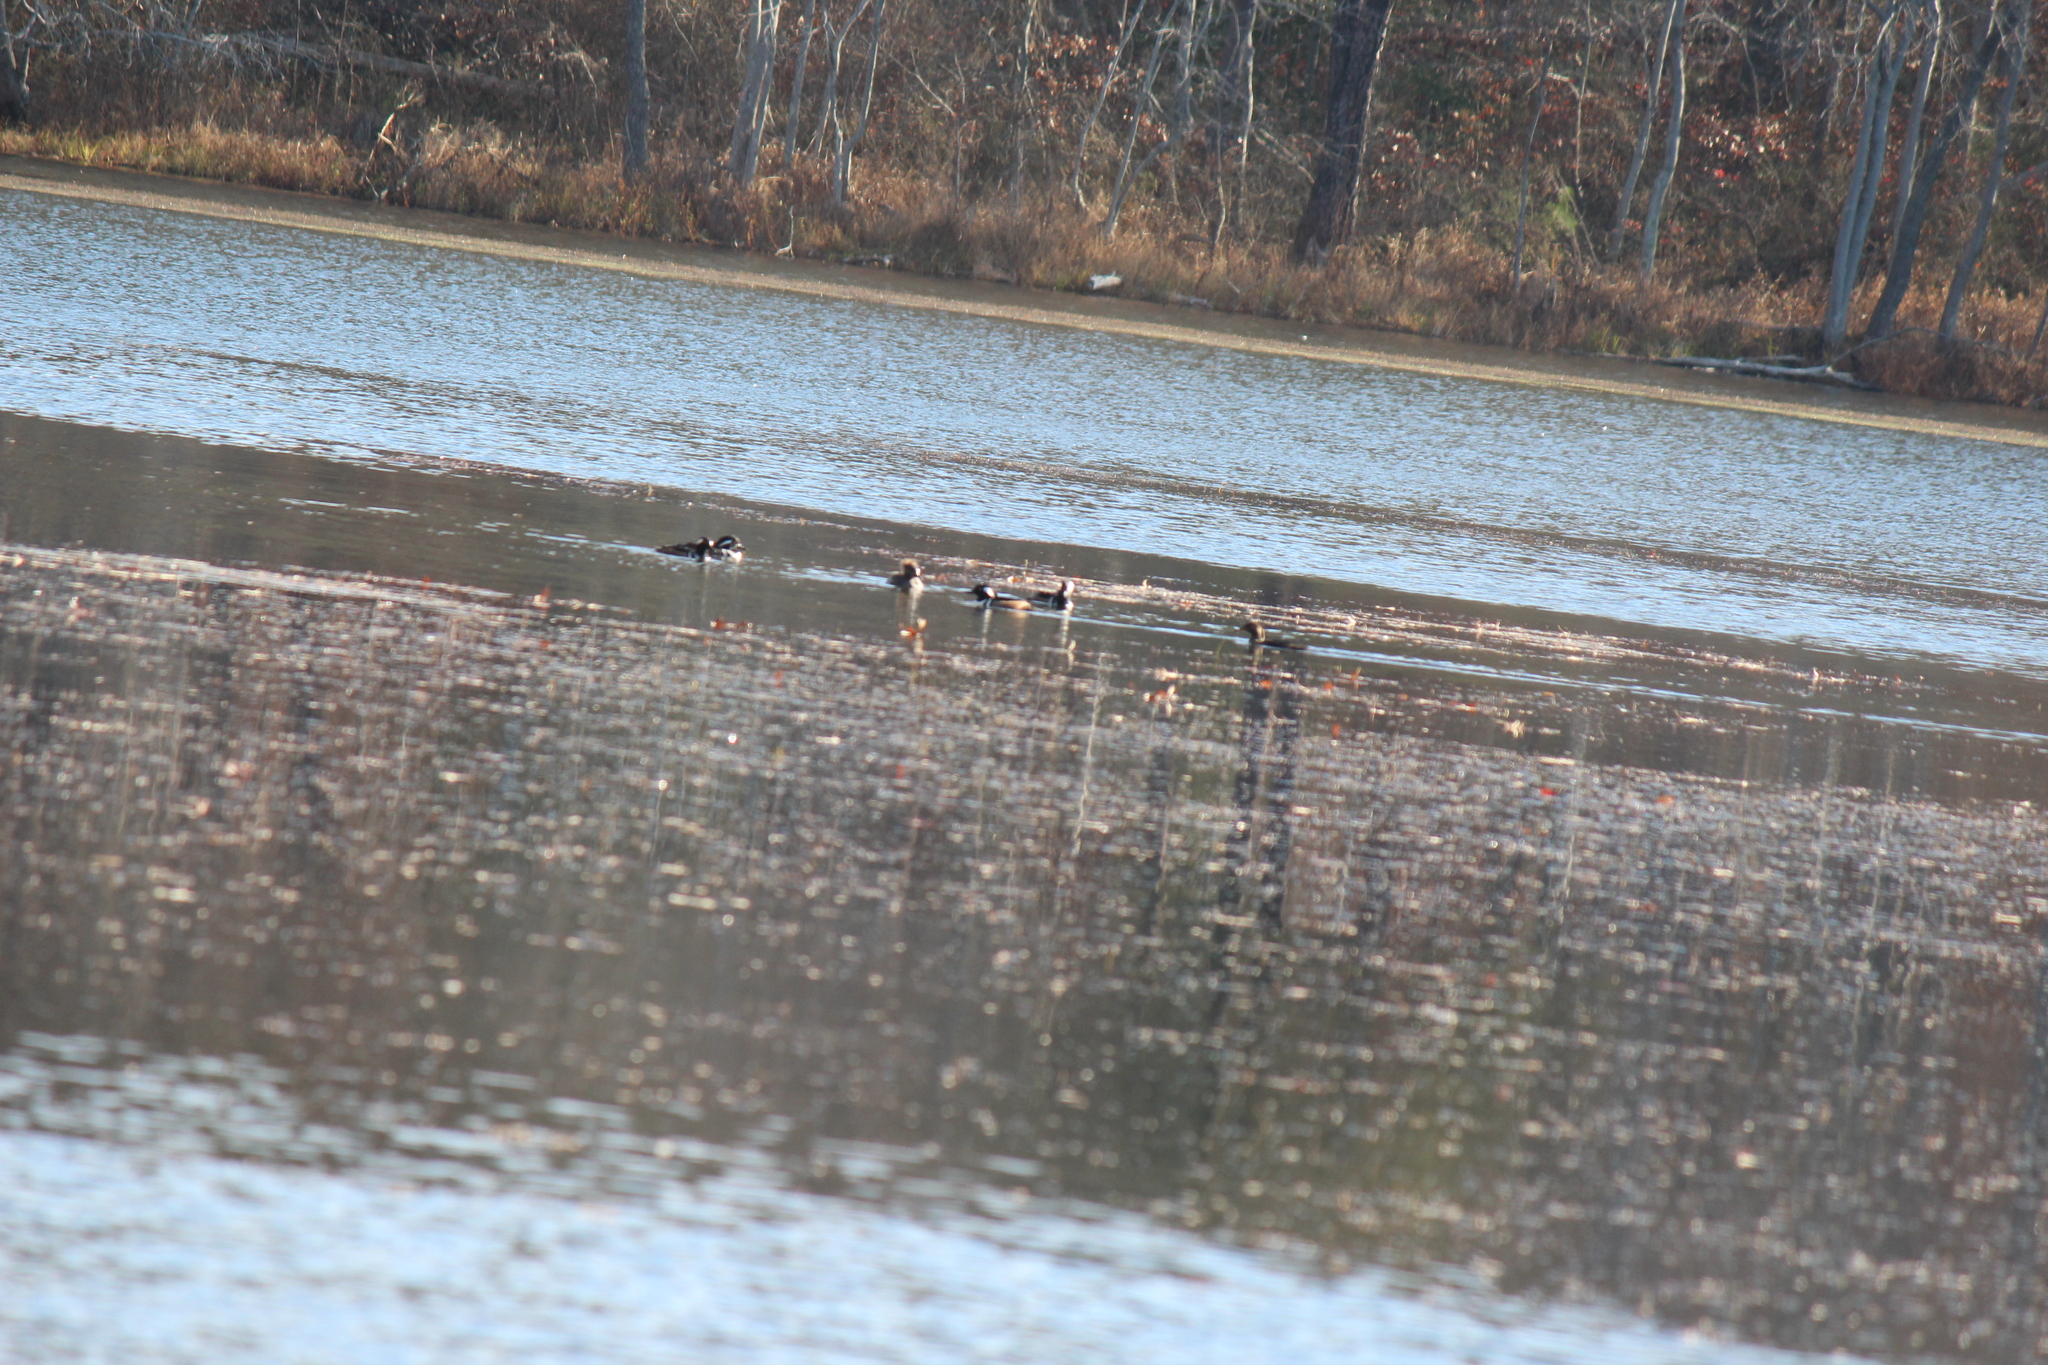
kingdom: Animalia
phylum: Chordata
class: Aves
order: Anseriformes
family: Anatidae
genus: Lophodytes
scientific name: Lophodytes cucullatus
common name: Hooded merganser
